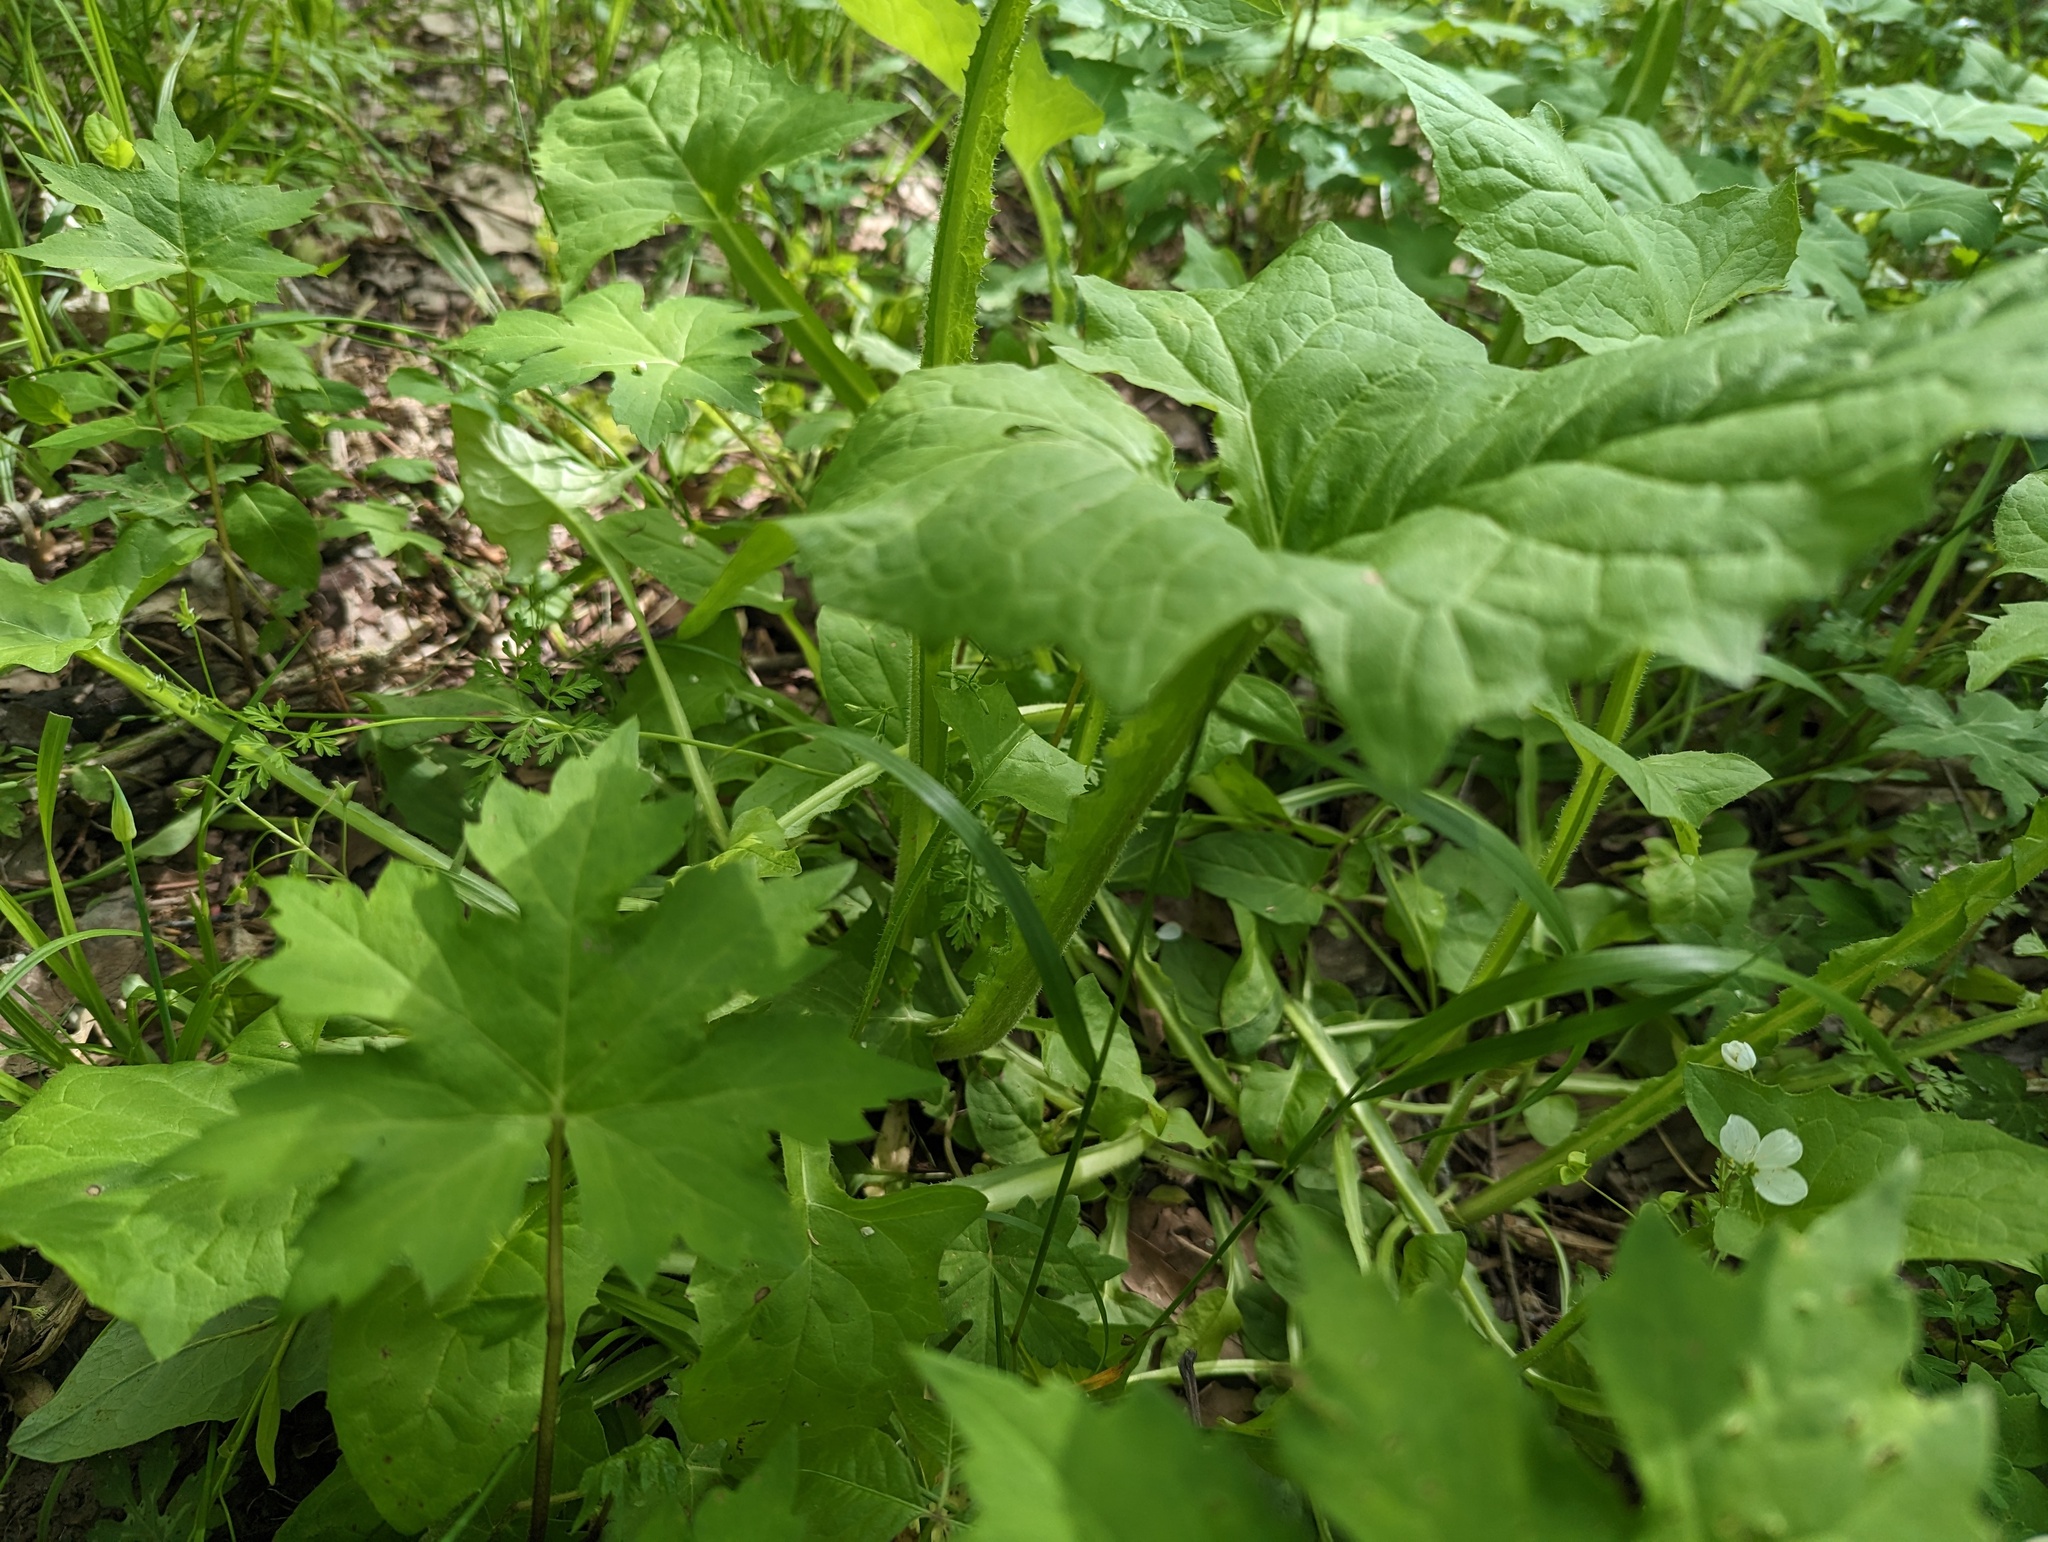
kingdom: Plantae
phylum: Tracheophyta
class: Magnoliopsida
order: Asterales
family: Asteraceae
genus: Nabalus
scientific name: Nabalus crepidineus
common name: Nodding rattlesnakeroot
